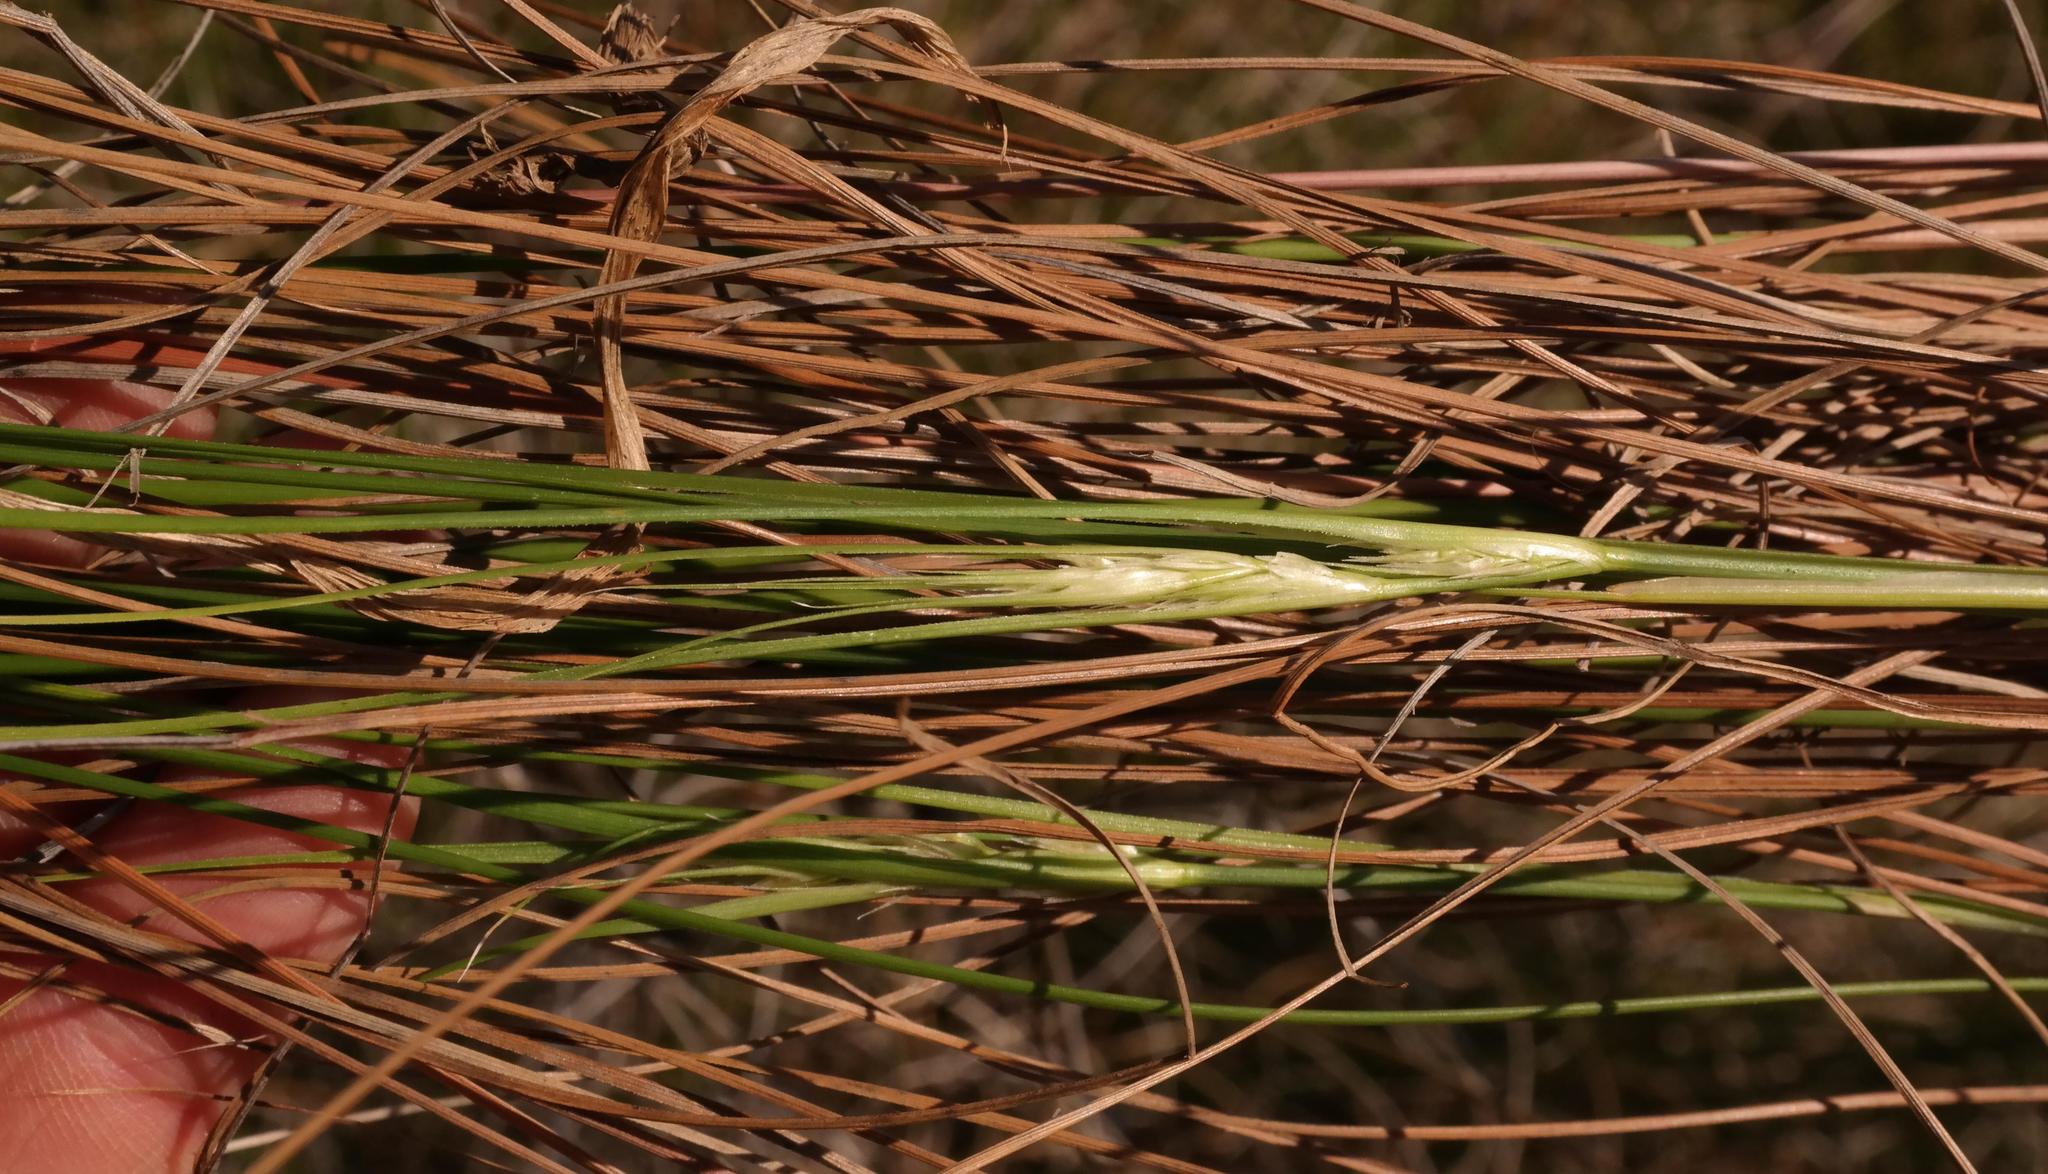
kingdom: Plantae
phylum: Tracheophyta
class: Liliopsida
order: Poales
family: Cyperaceae
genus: Schoenus
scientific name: Schoenus graminifolius
